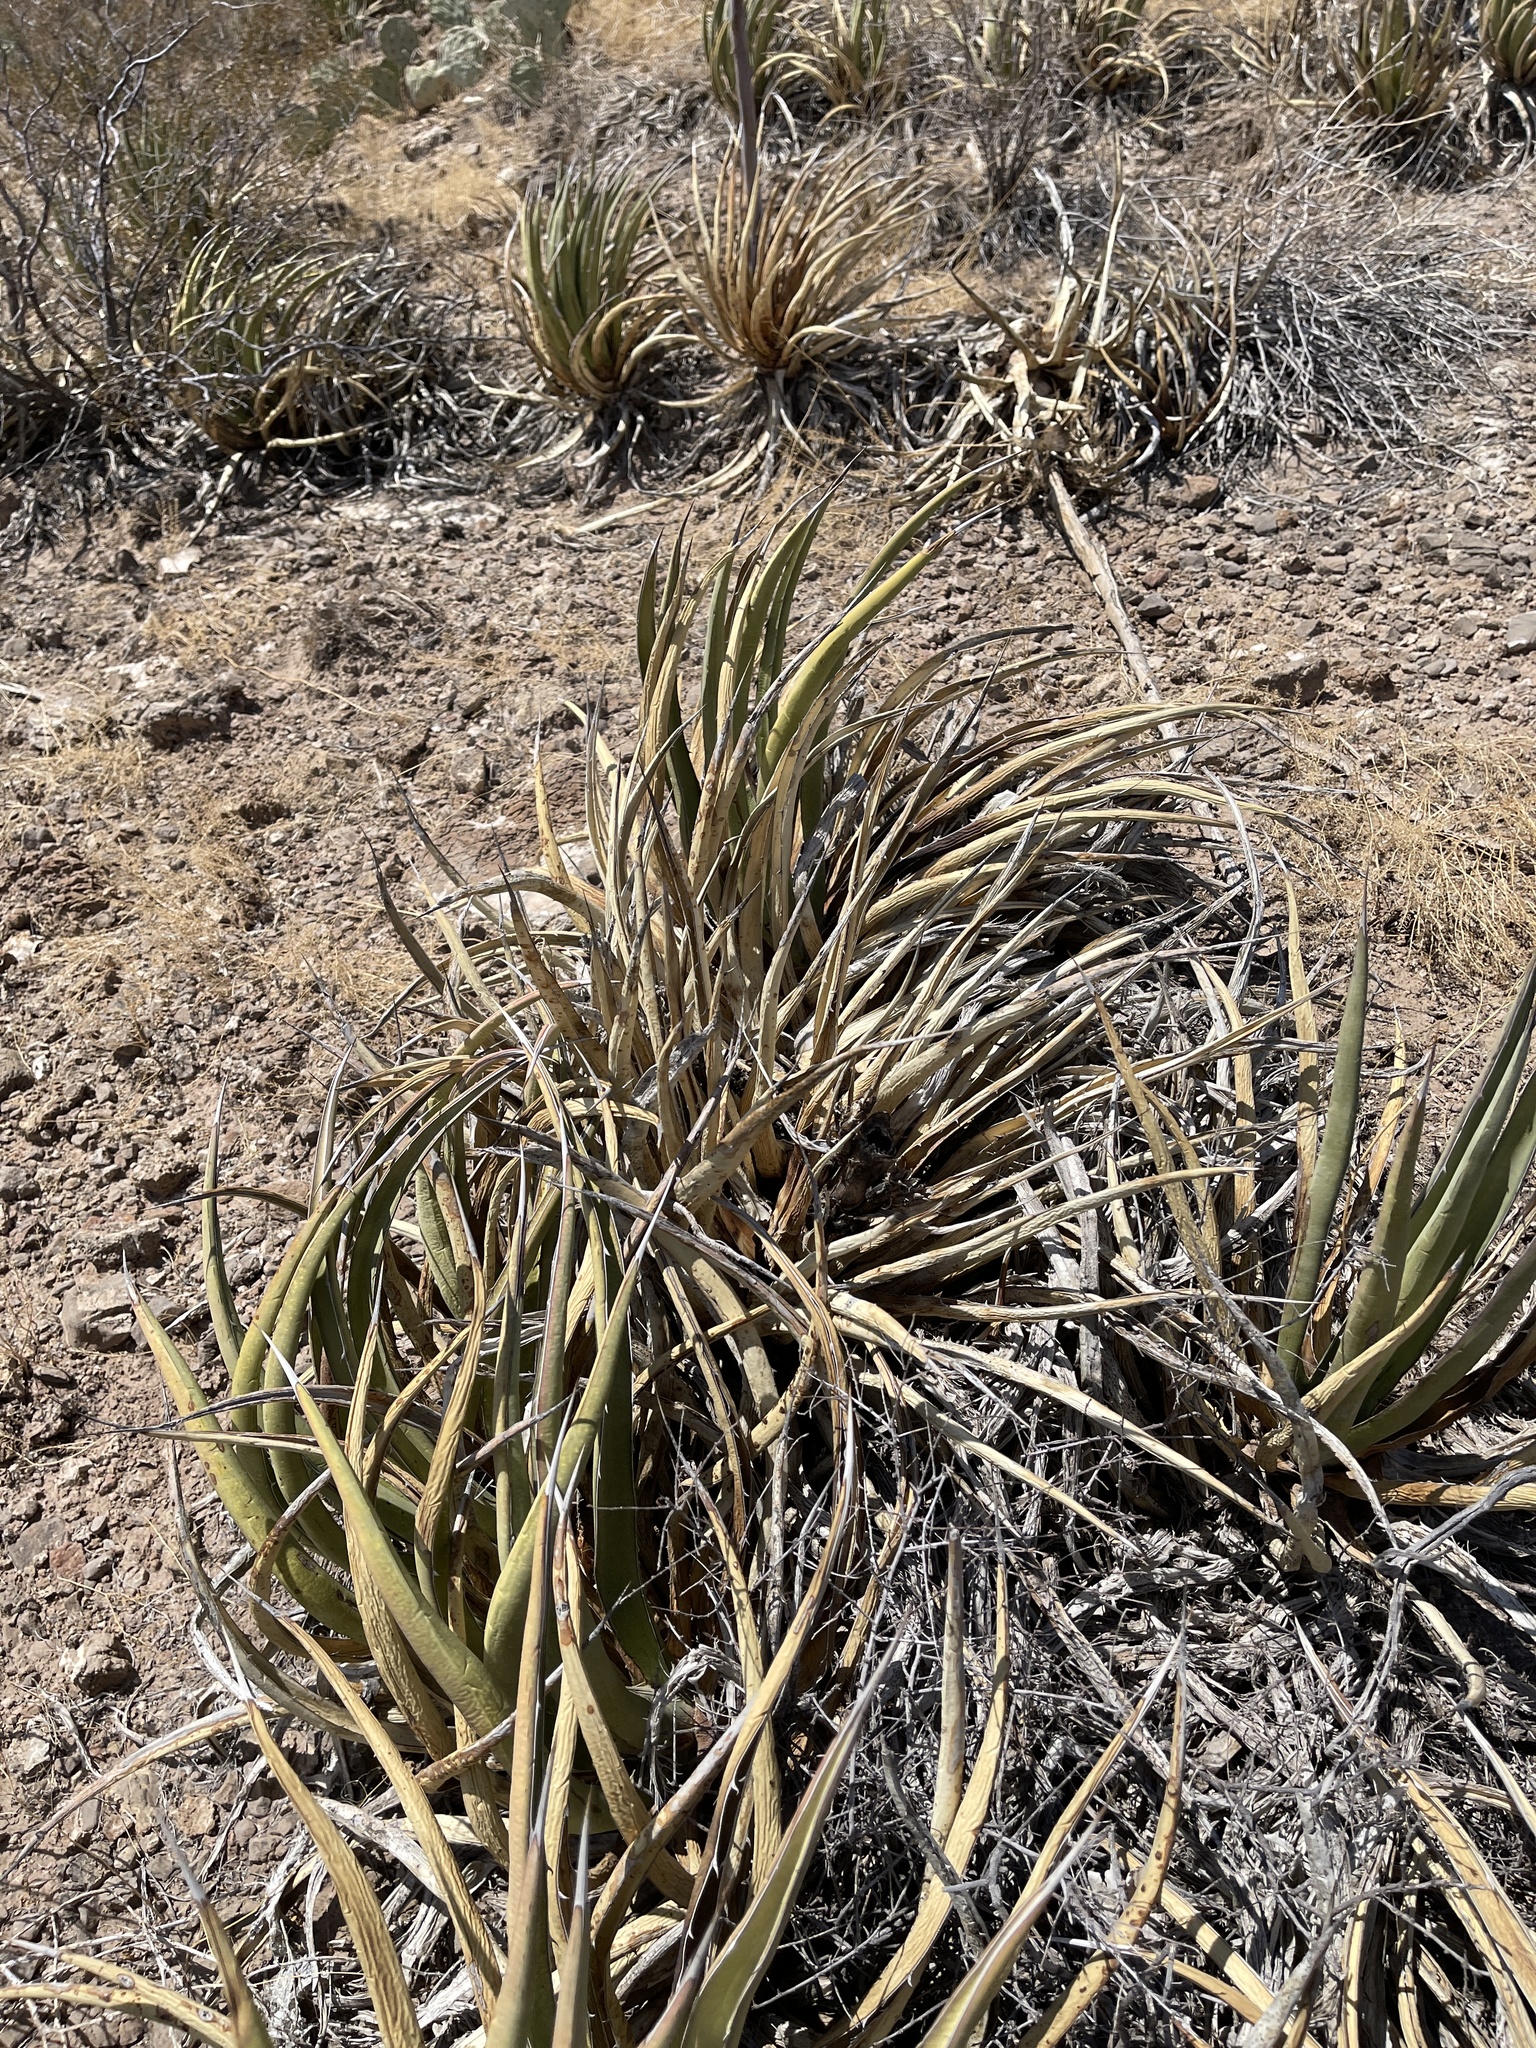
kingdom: Plantae
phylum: Tracheophyta
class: Liliopsida
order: Asparagales
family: Asparagaceae
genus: Agave
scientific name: Agave lechuguilla
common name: Lecheguilla agave
